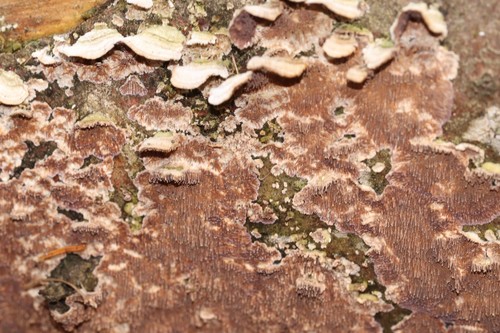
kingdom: Fungi
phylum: Basidiomycota
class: Agaricomycetes
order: Hymenochaetales
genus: Trichaptum
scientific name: Trichaptum fuscoviolaceum
